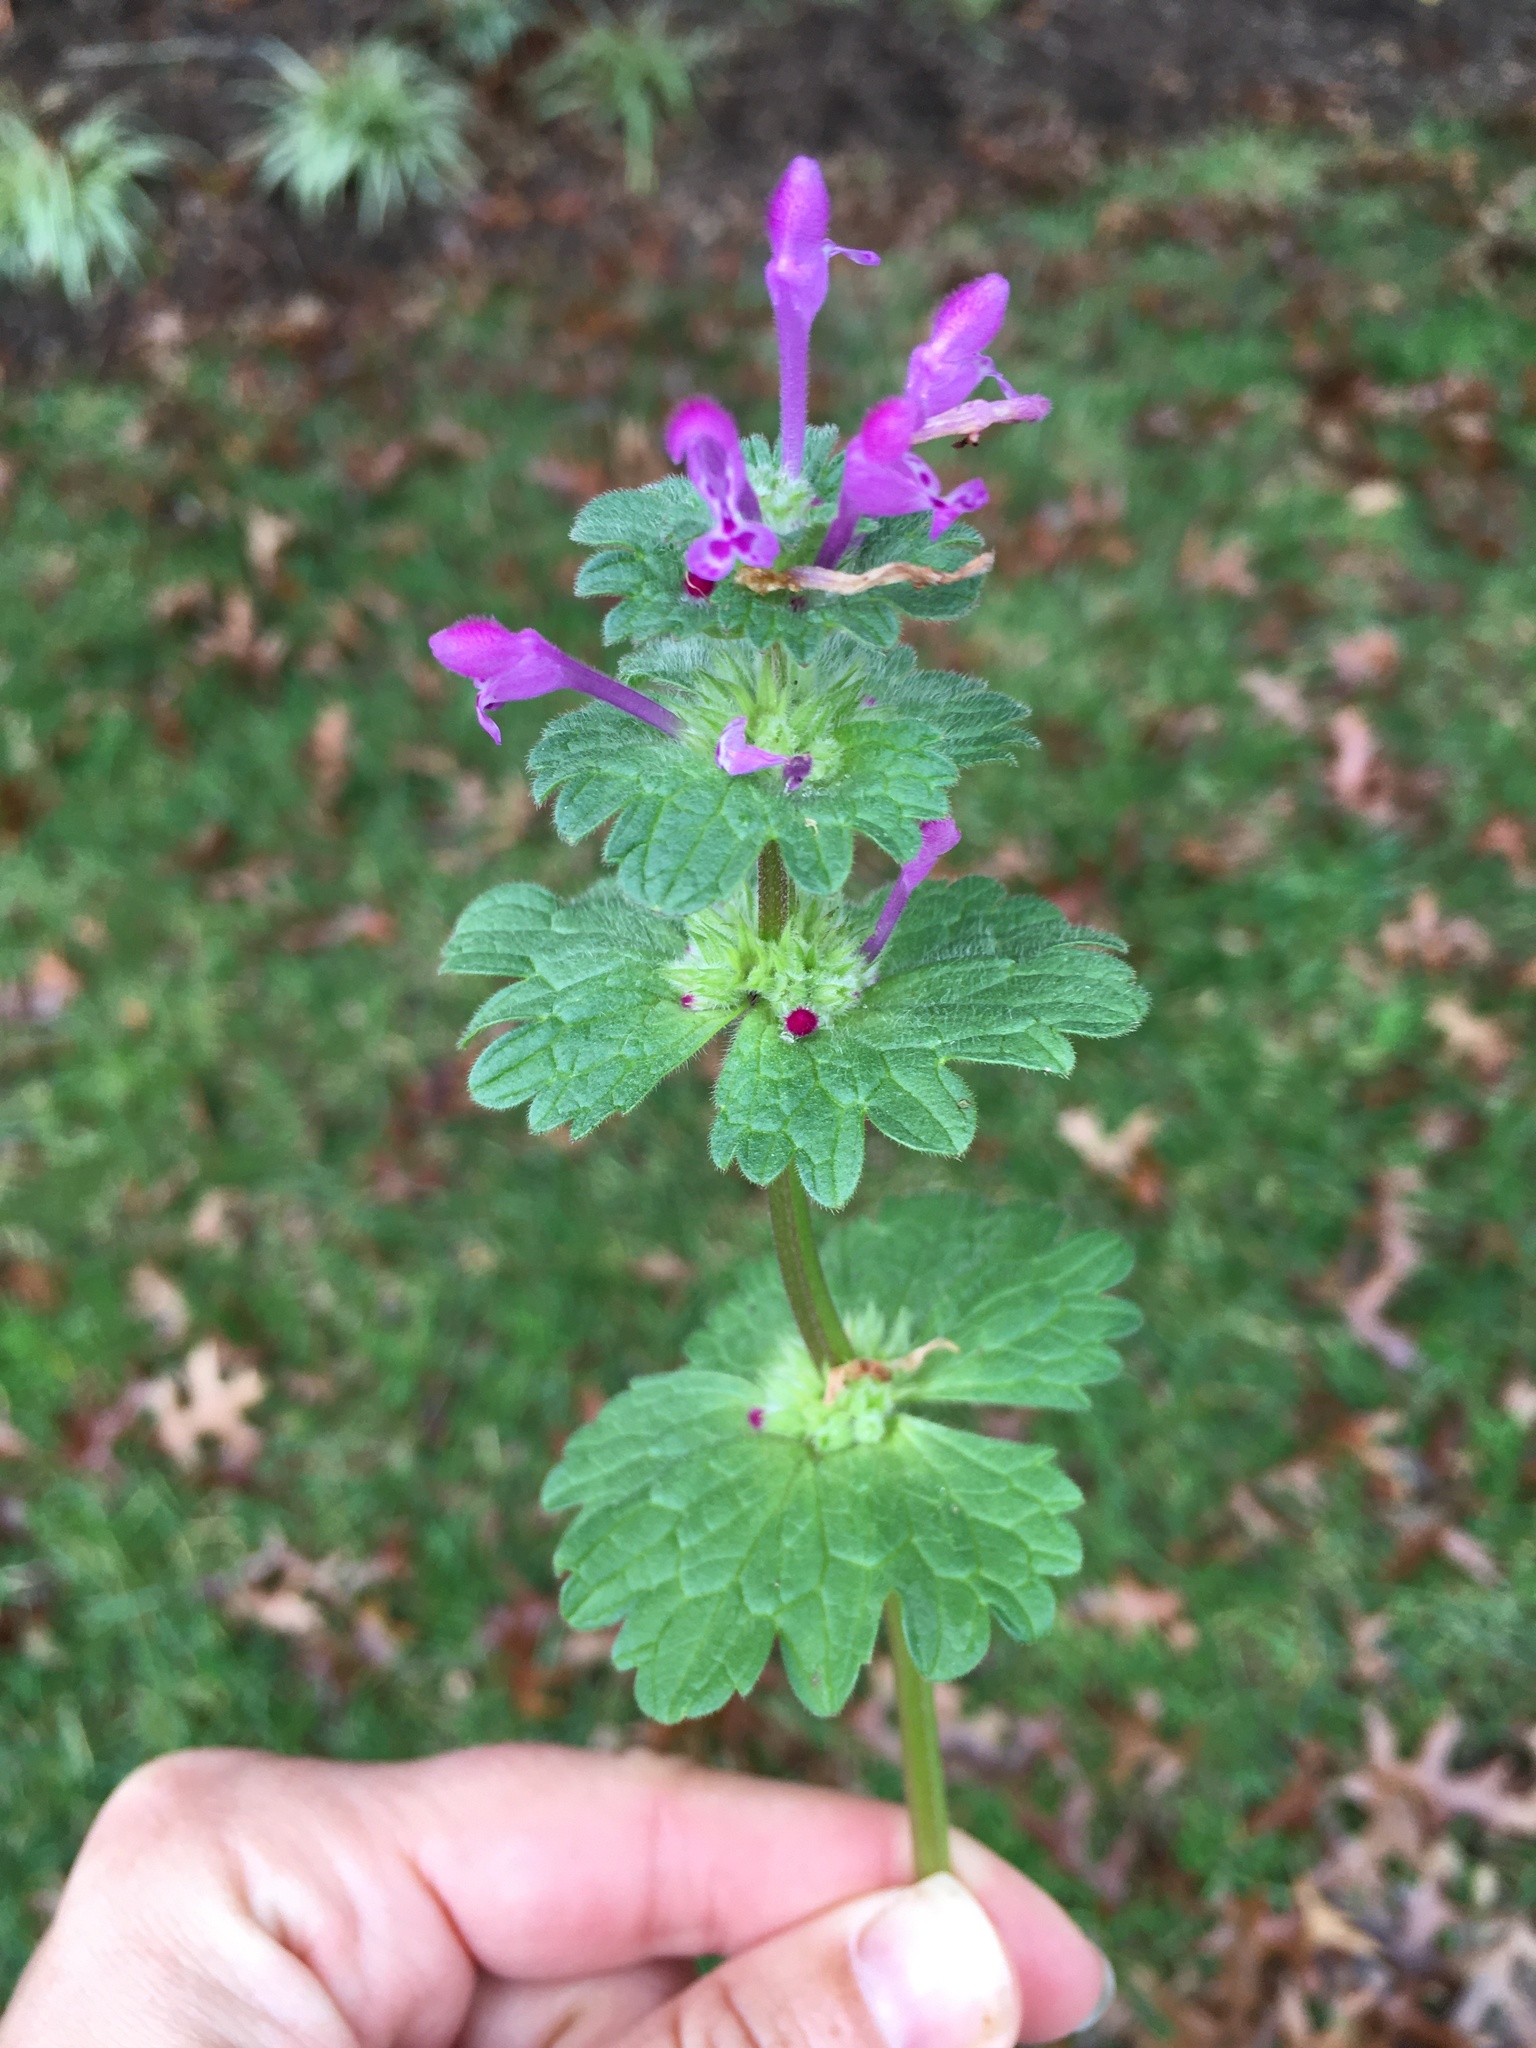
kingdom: Plantae
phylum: Tracheophyta
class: Magnoliopsida
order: Lamiales
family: Lamiaceae
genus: Lamium
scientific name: Lamium amplexicaule
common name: Henbit dead-nettle
